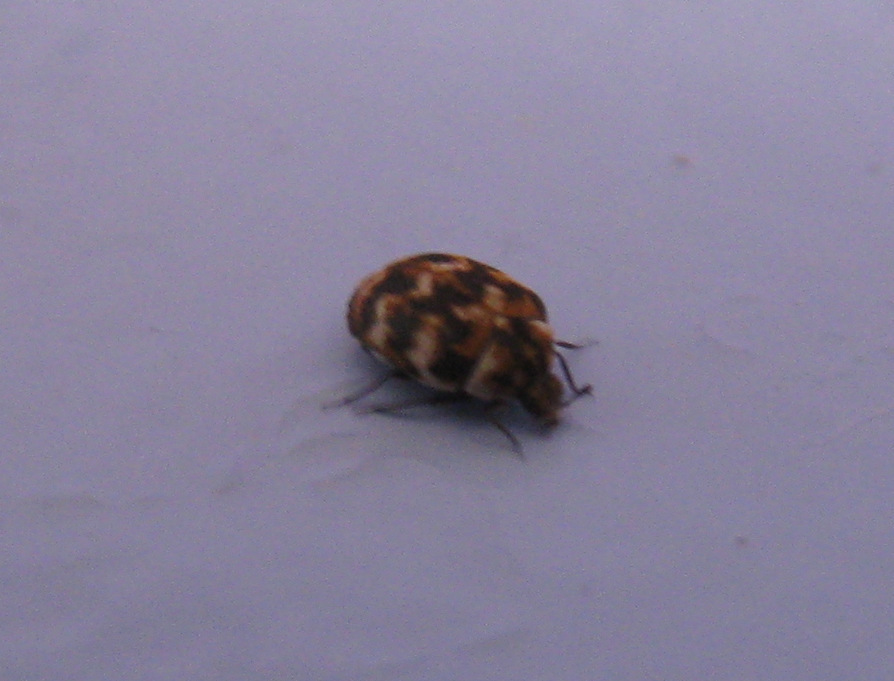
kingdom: Animalia
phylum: Arthropoda
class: Insecta
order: Coleoptera
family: Dermestidae
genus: Anthrenus
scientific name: Anthrenus verbasci
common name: Varied carpet beetle
